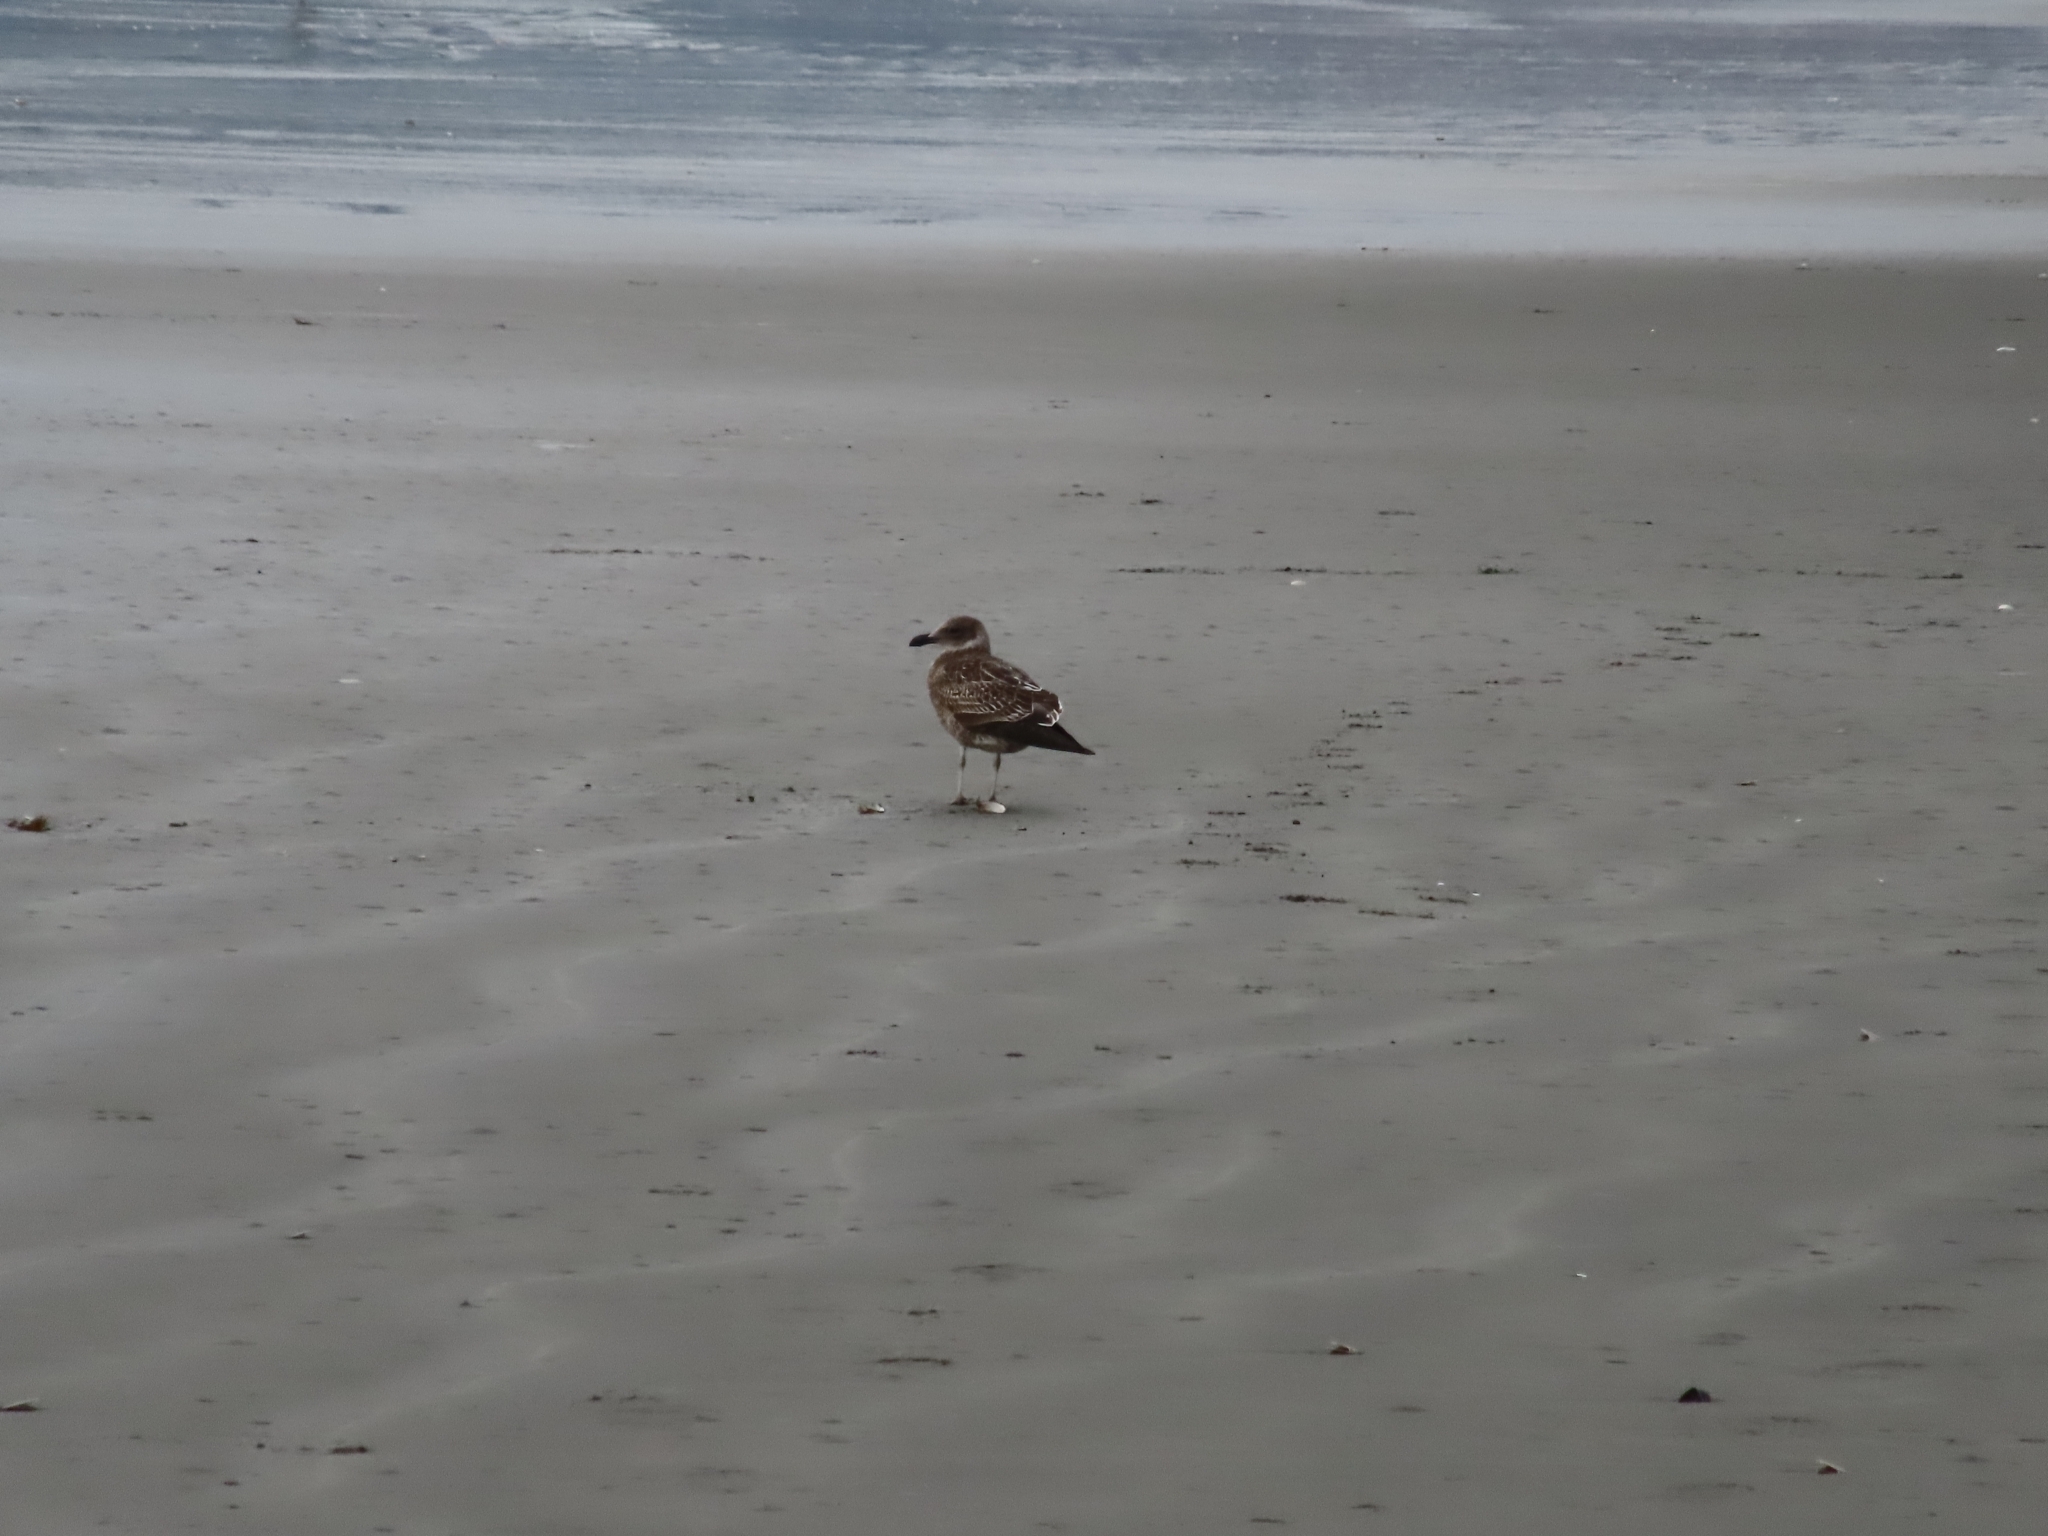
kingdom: Animalia
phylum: Chordata
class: Aves
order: Charadriiformes
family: Laridae
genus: Larus
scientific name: Larus dominicanus
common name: Kelp gull
